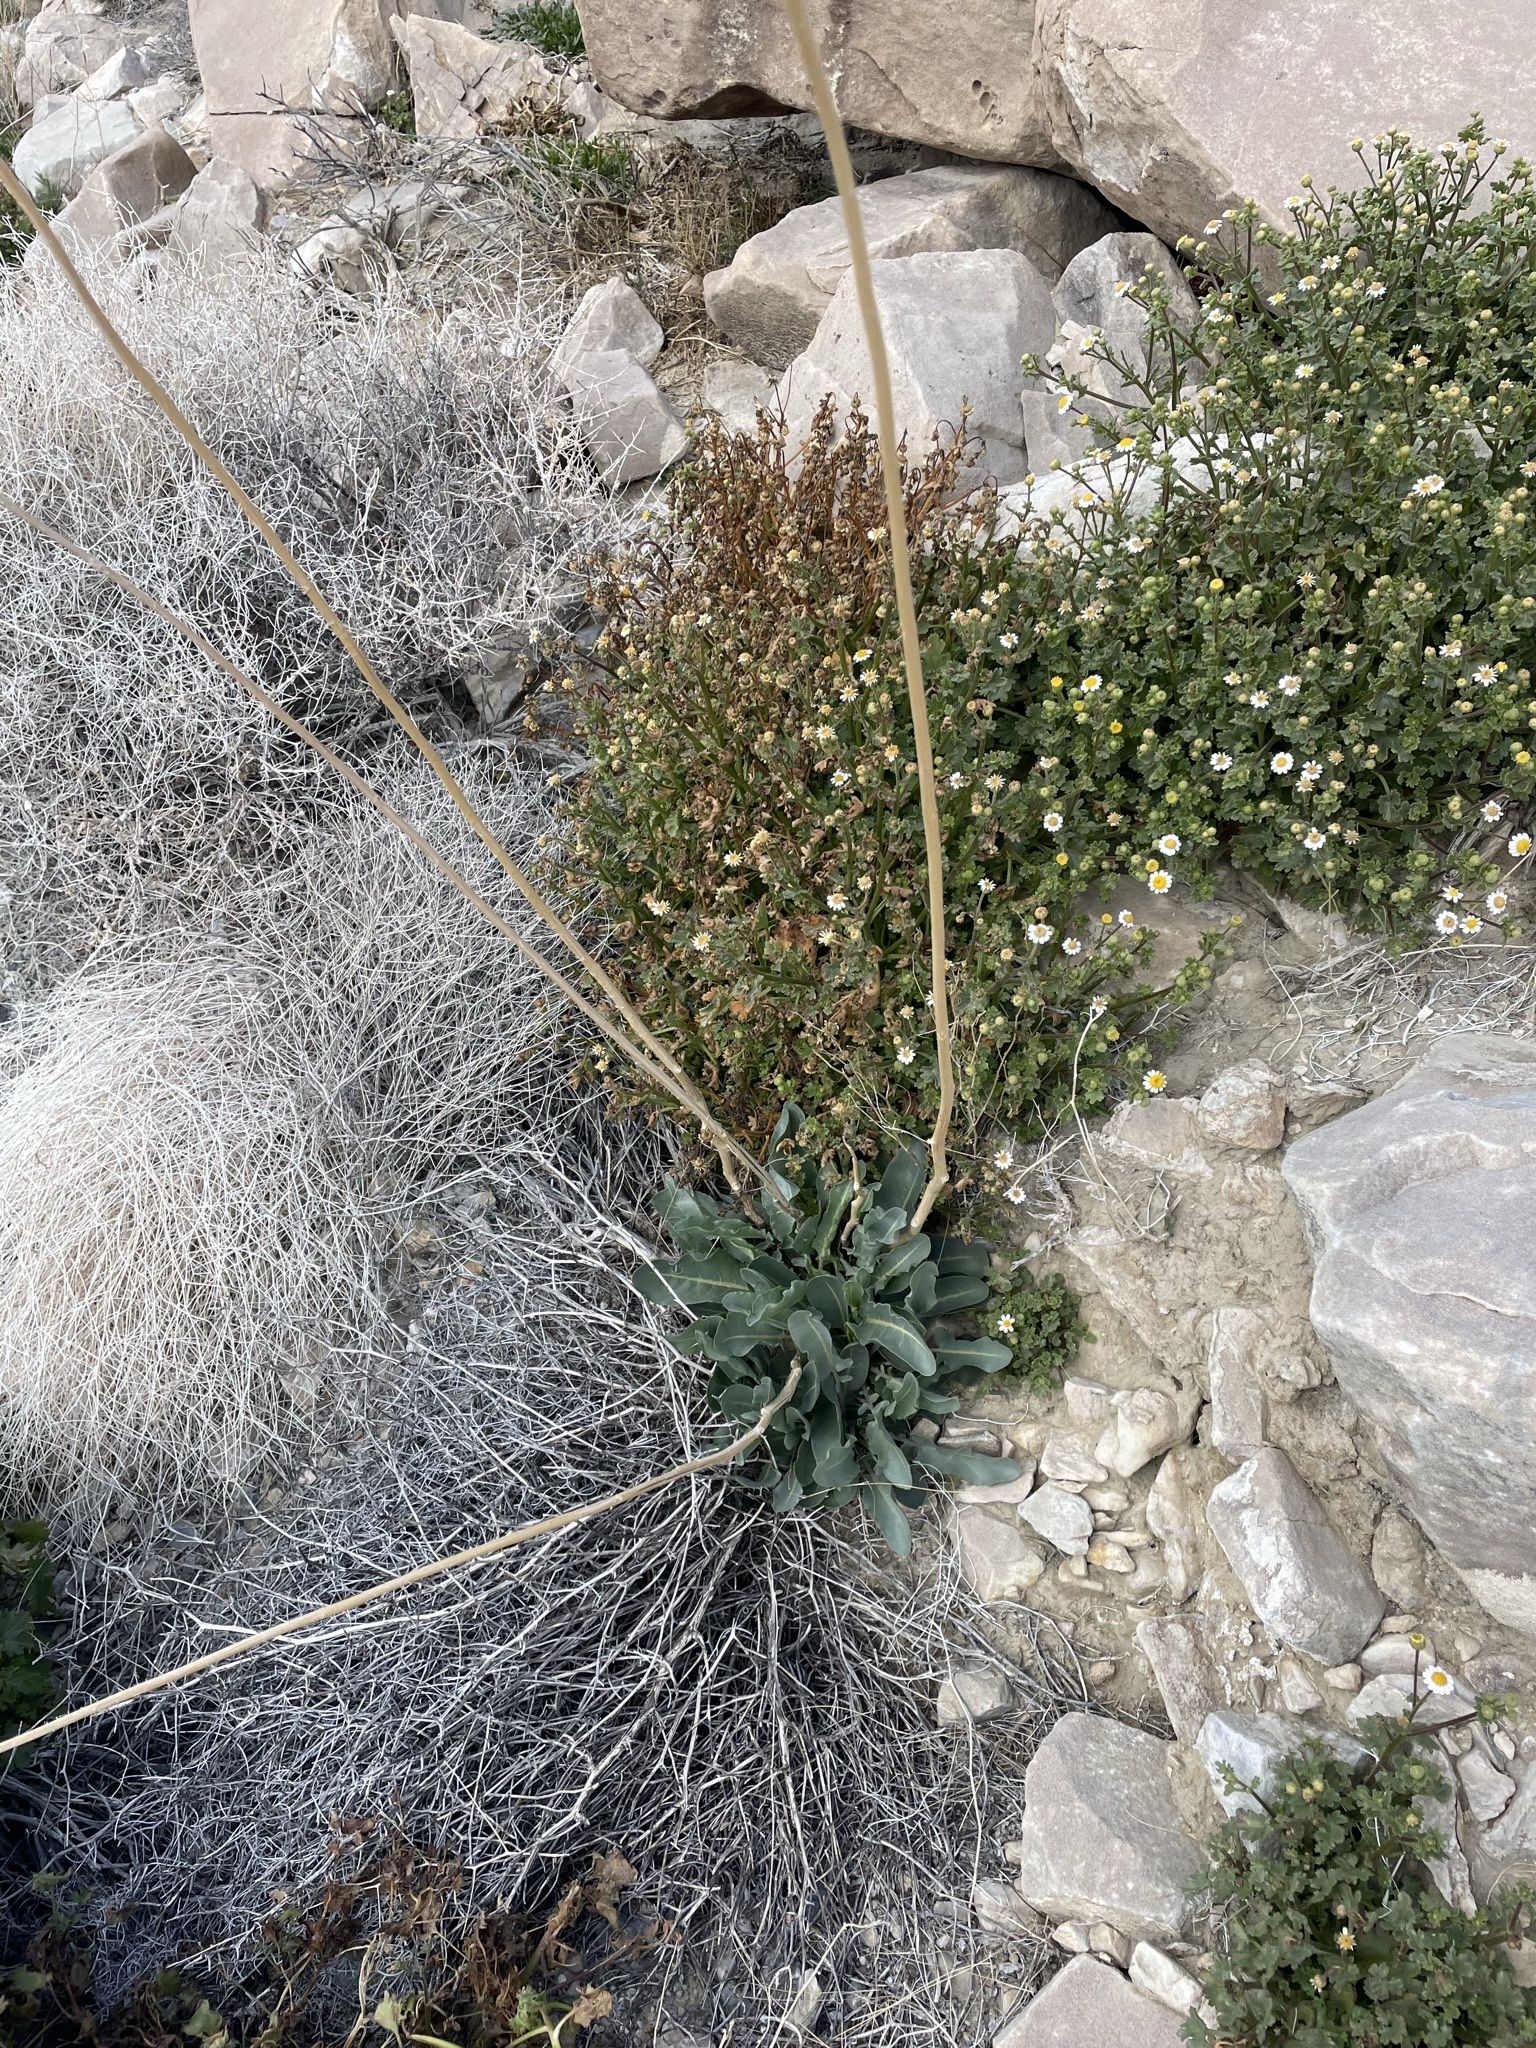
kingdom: Plantae
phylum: Tracheophyta
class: Magnoliopsida
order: Brassicales
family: Brassicaceae
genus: Stanleya
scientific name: Stanleya elata
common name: Panamint prince's plume
